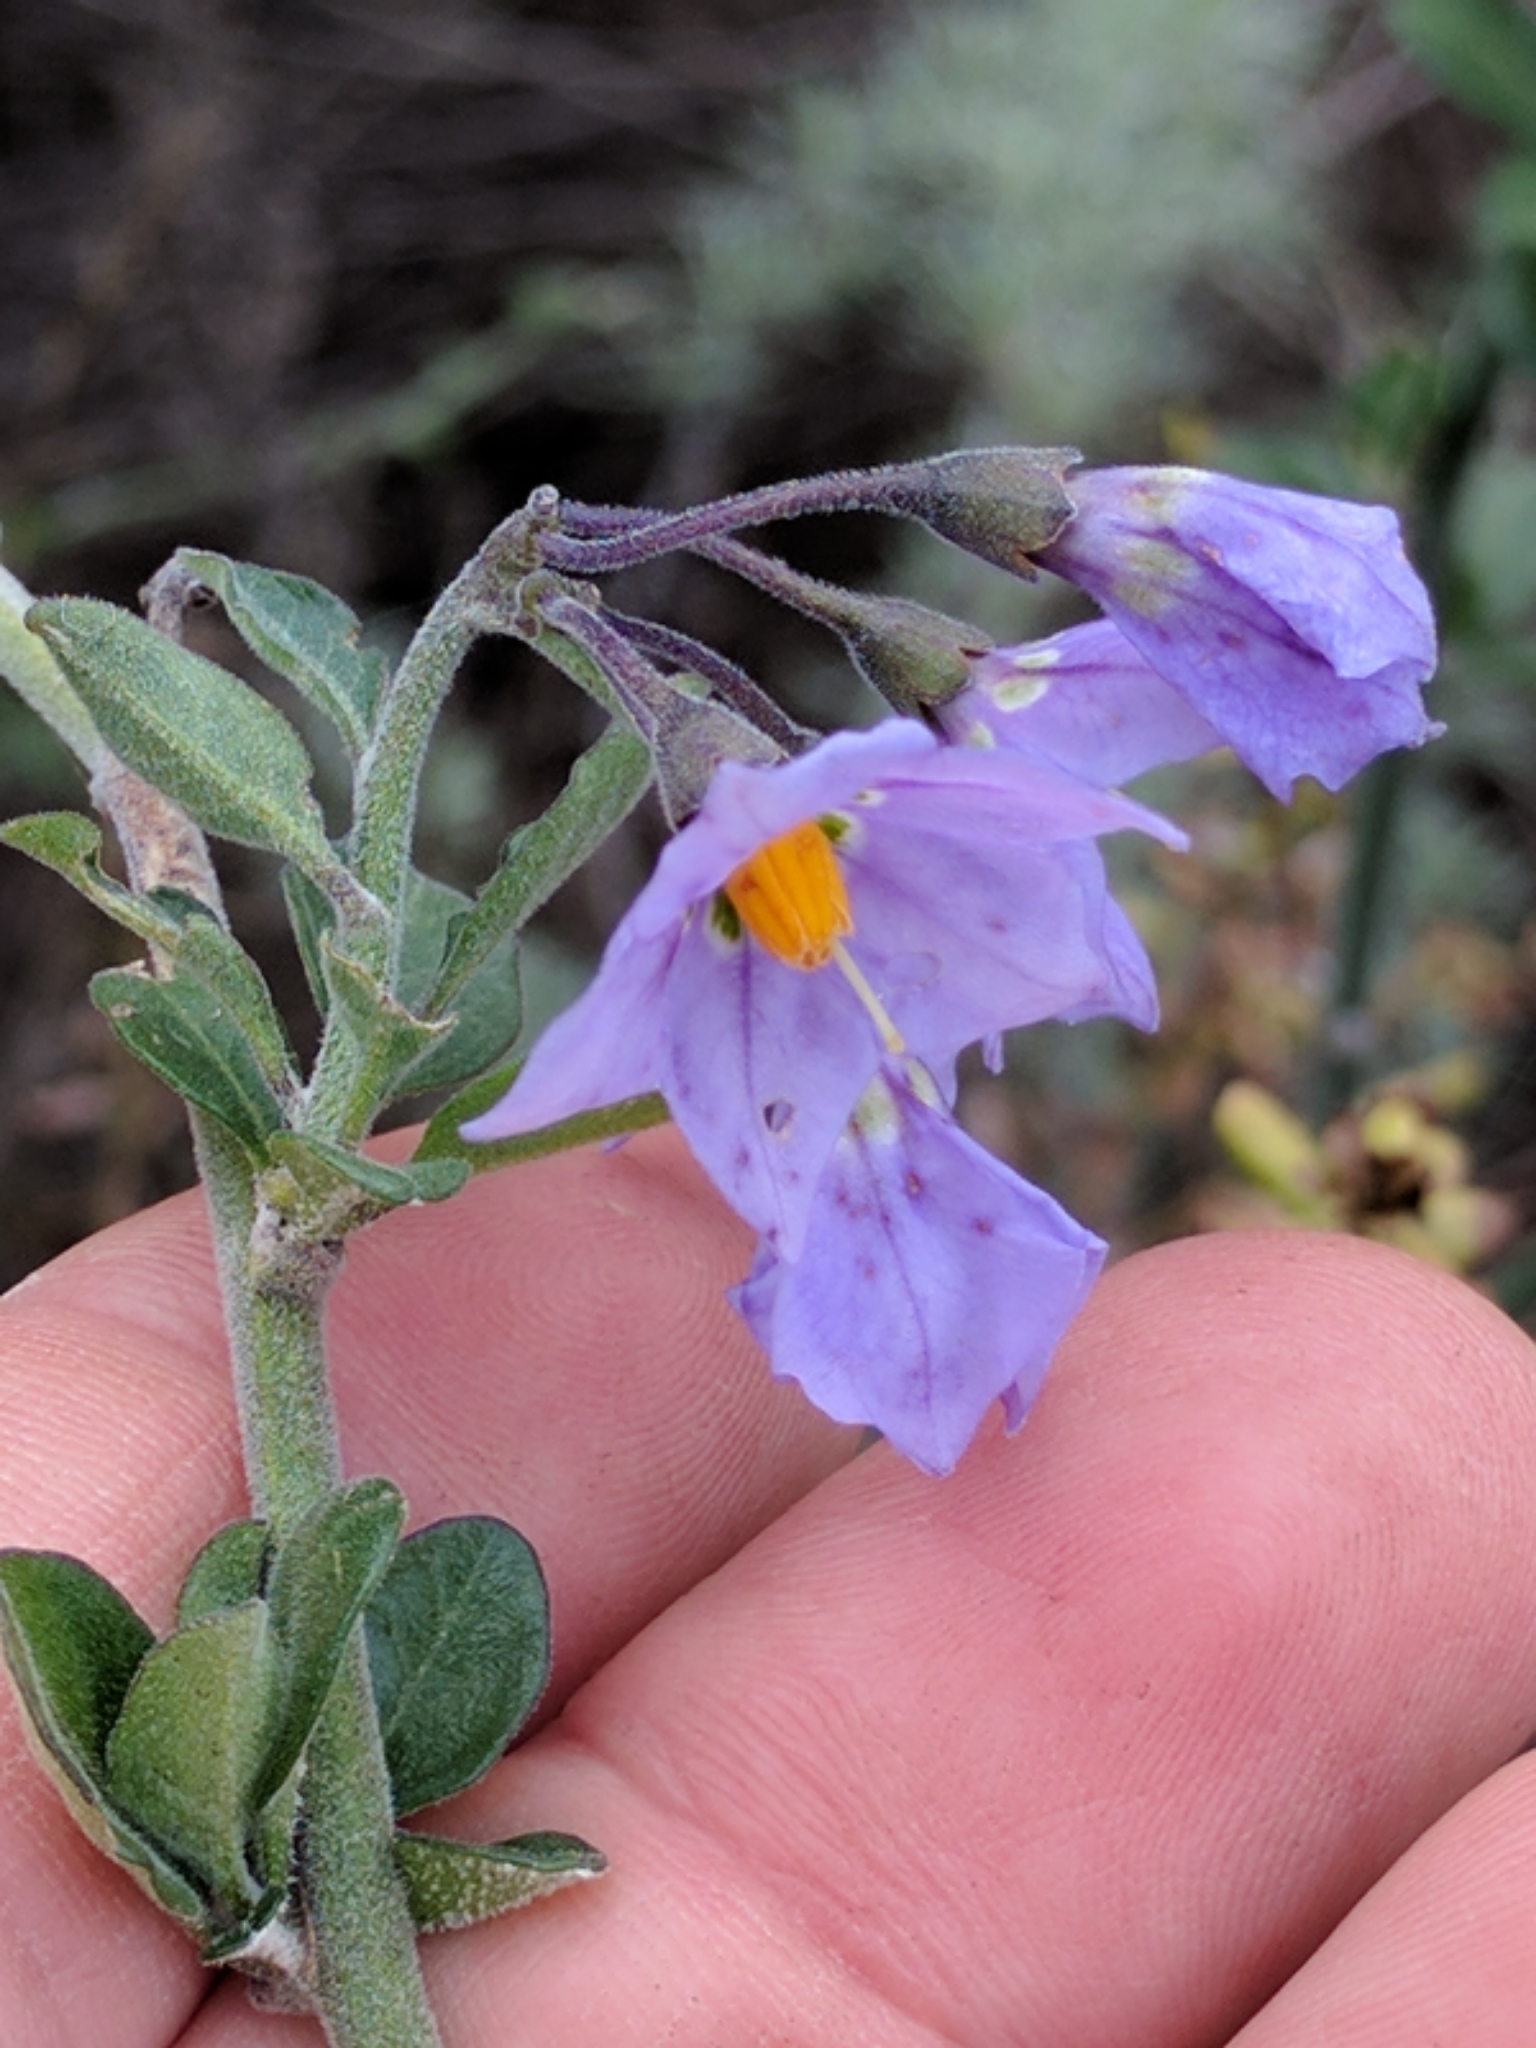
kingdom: Plantae
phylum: Tracheophyta
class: Magnoliopsida
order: Solanales
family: Solanaceae
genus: Solanum
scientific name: Solanum umbelliferum
